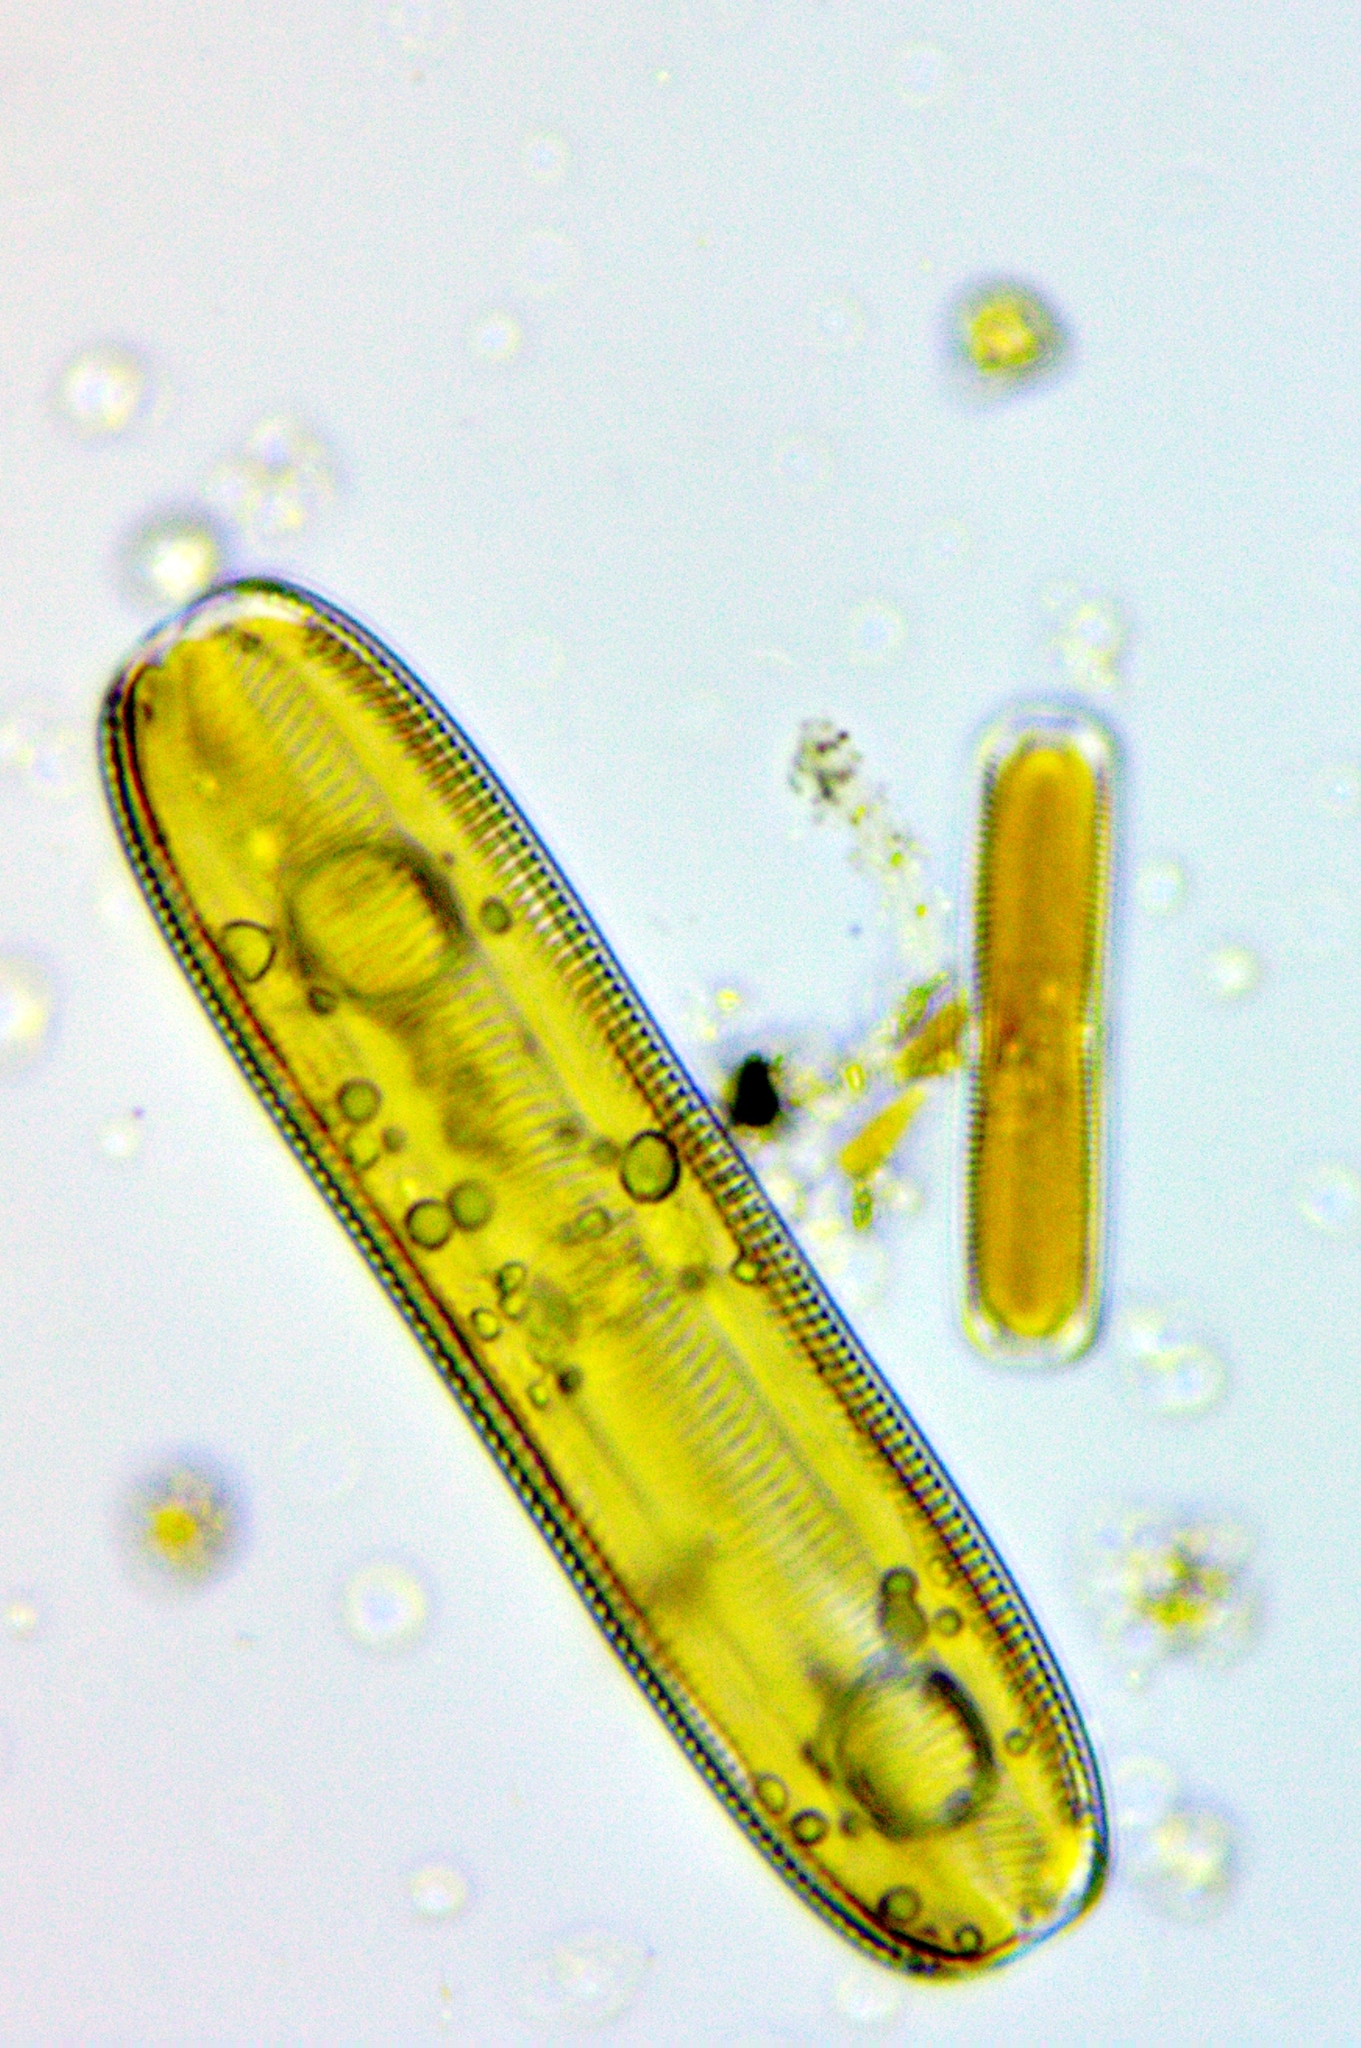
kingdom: Chromista
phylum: Ochrophyta
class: Bacillariophyceae
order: Naviculales
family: Pinnulariaceae
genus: Pinnularia
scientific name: Pinnularia
